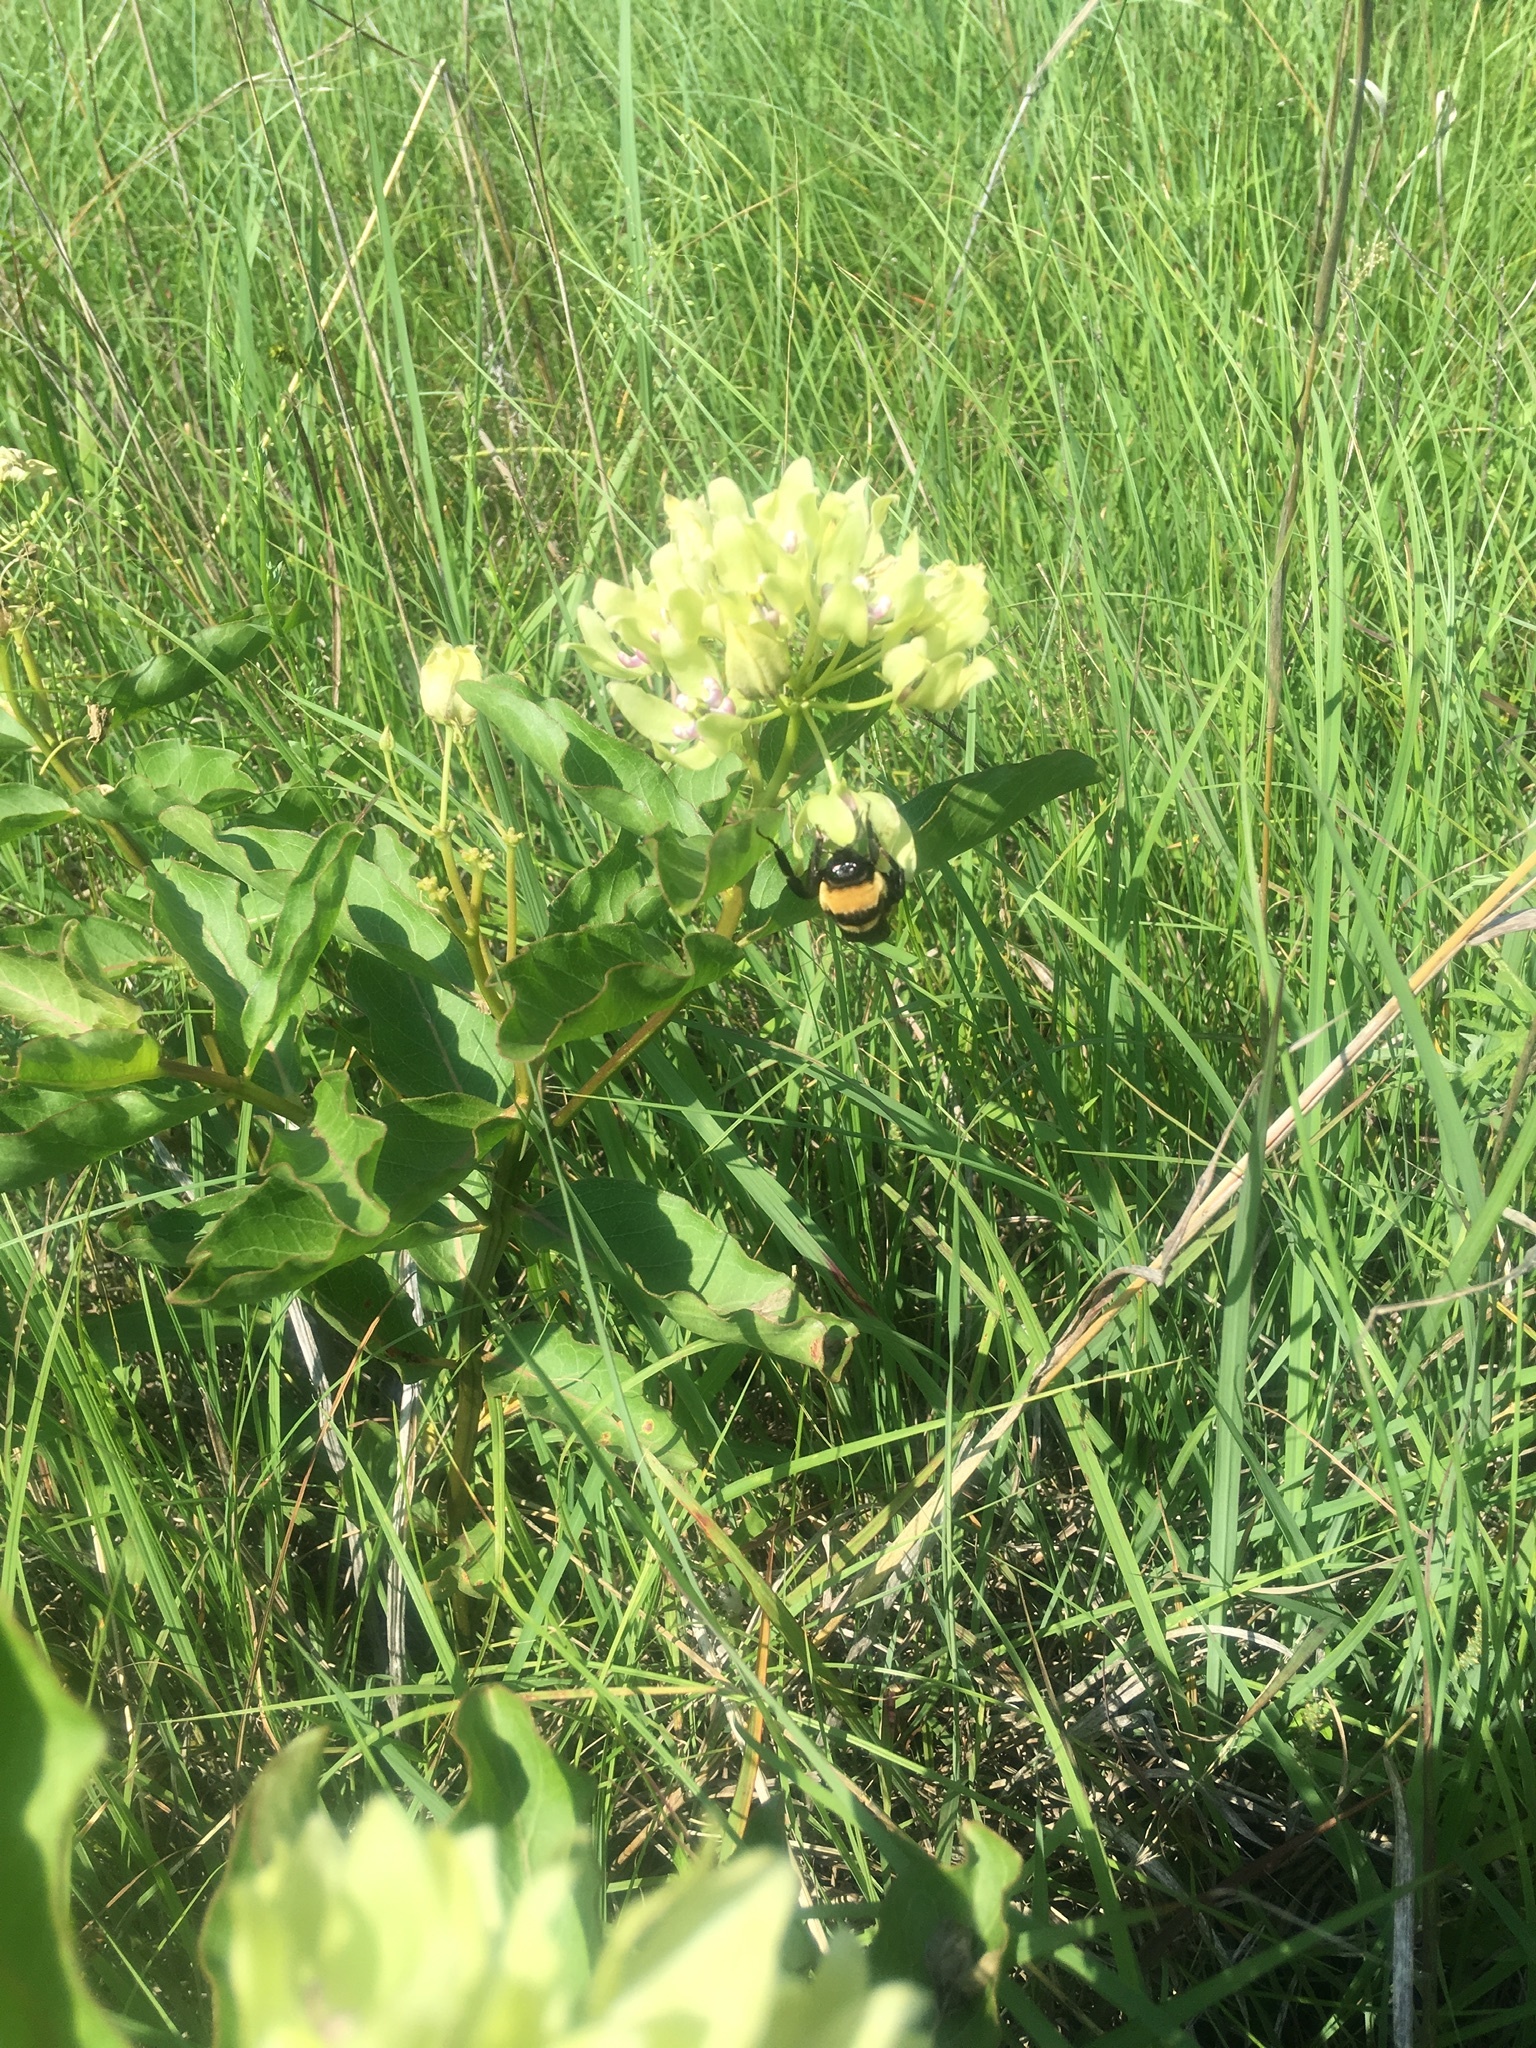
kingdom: Animalia
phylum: Arthropoda
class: Insecta
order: Hymenoptera
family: Apidae
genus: Bombus
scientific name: Bombus fraternus
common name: Southern plains bumble bee
